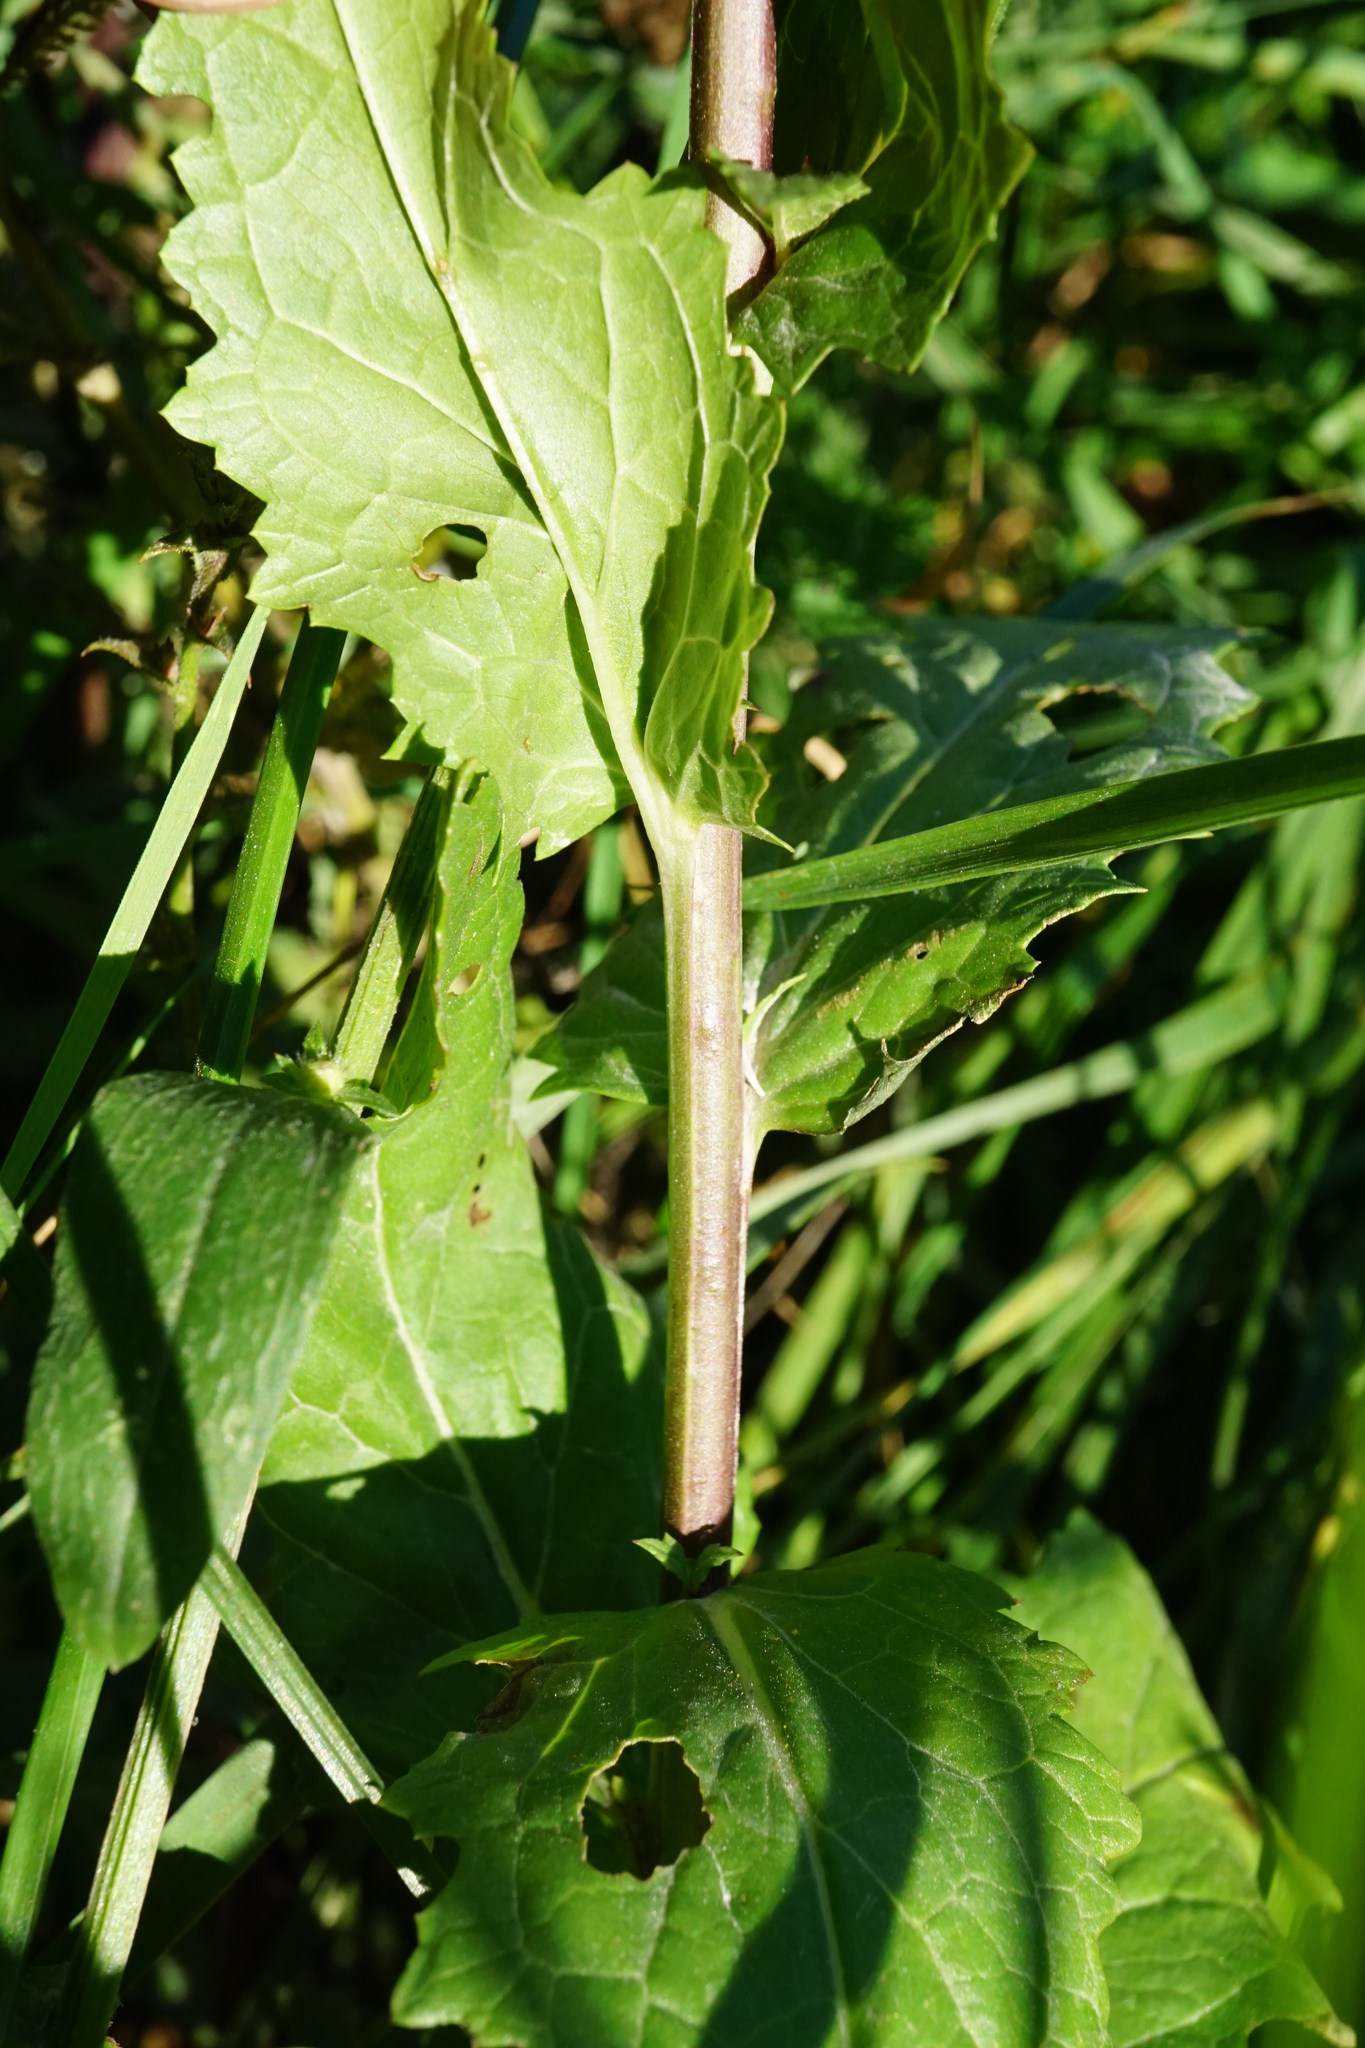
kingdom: Plantae
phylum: Tracheophyta
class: Magnoliopsida
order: Lamiales
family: Scrophulariaceae
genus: Verbascum
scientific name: Verbascum blattaria
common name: Moth mullein
